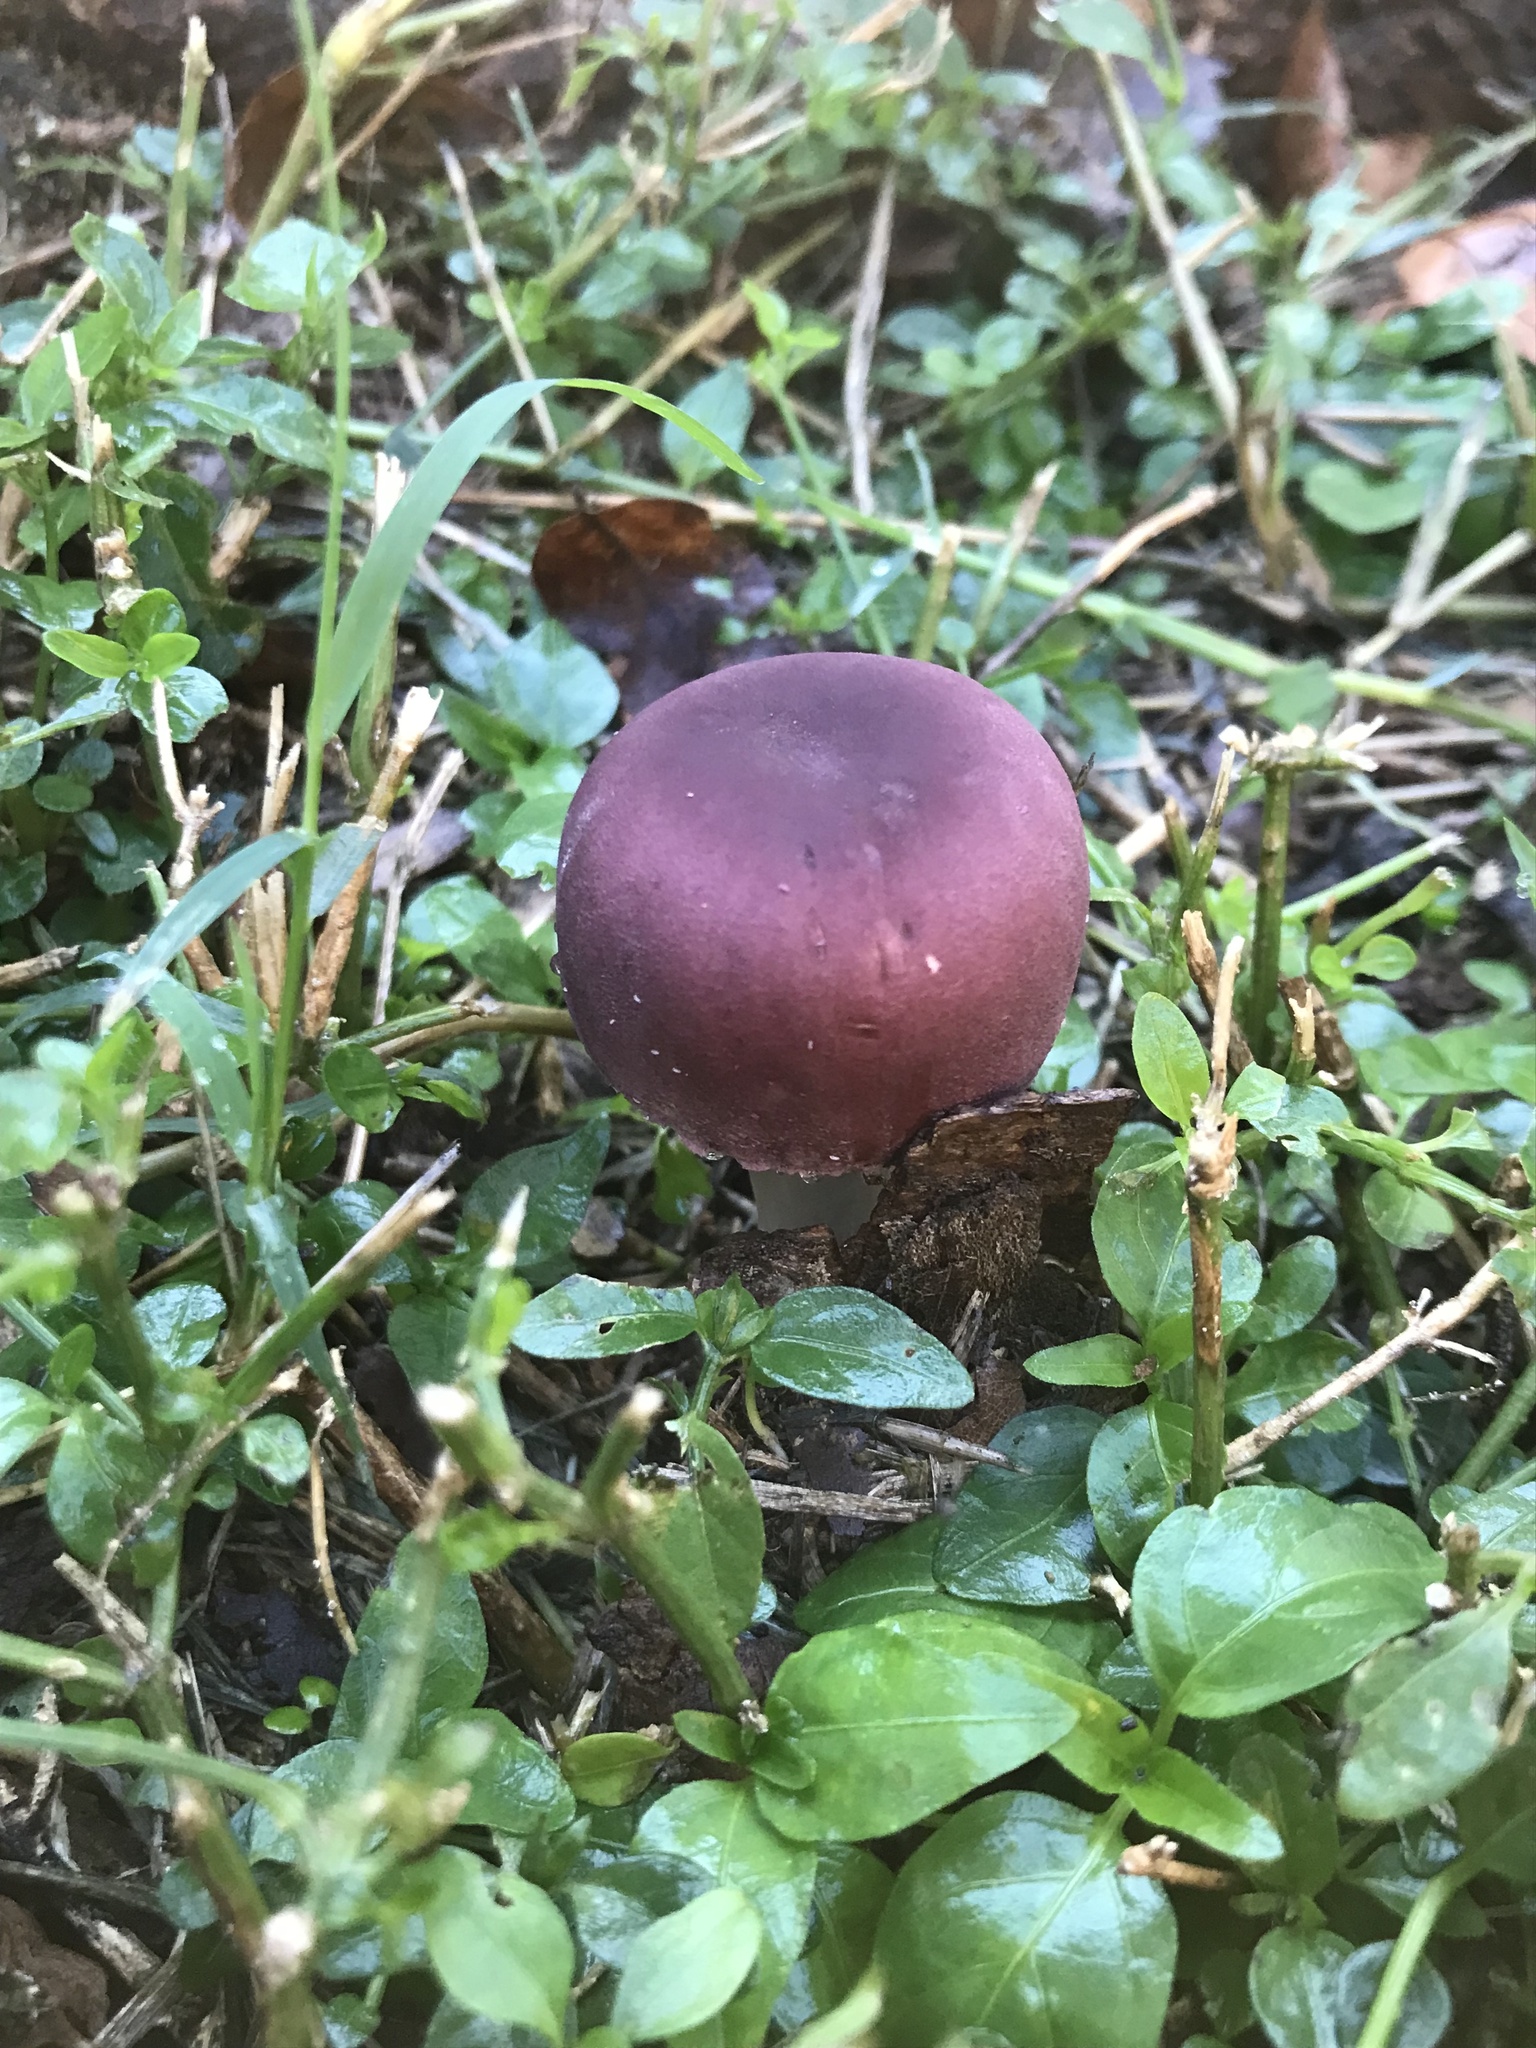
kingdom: Fungi
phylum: Basidiomycota
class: Agaricomycetes
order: Agaricales
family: Agaricaceae
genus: Leucoagaricus
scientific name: Leucoagaricus lilaceus
